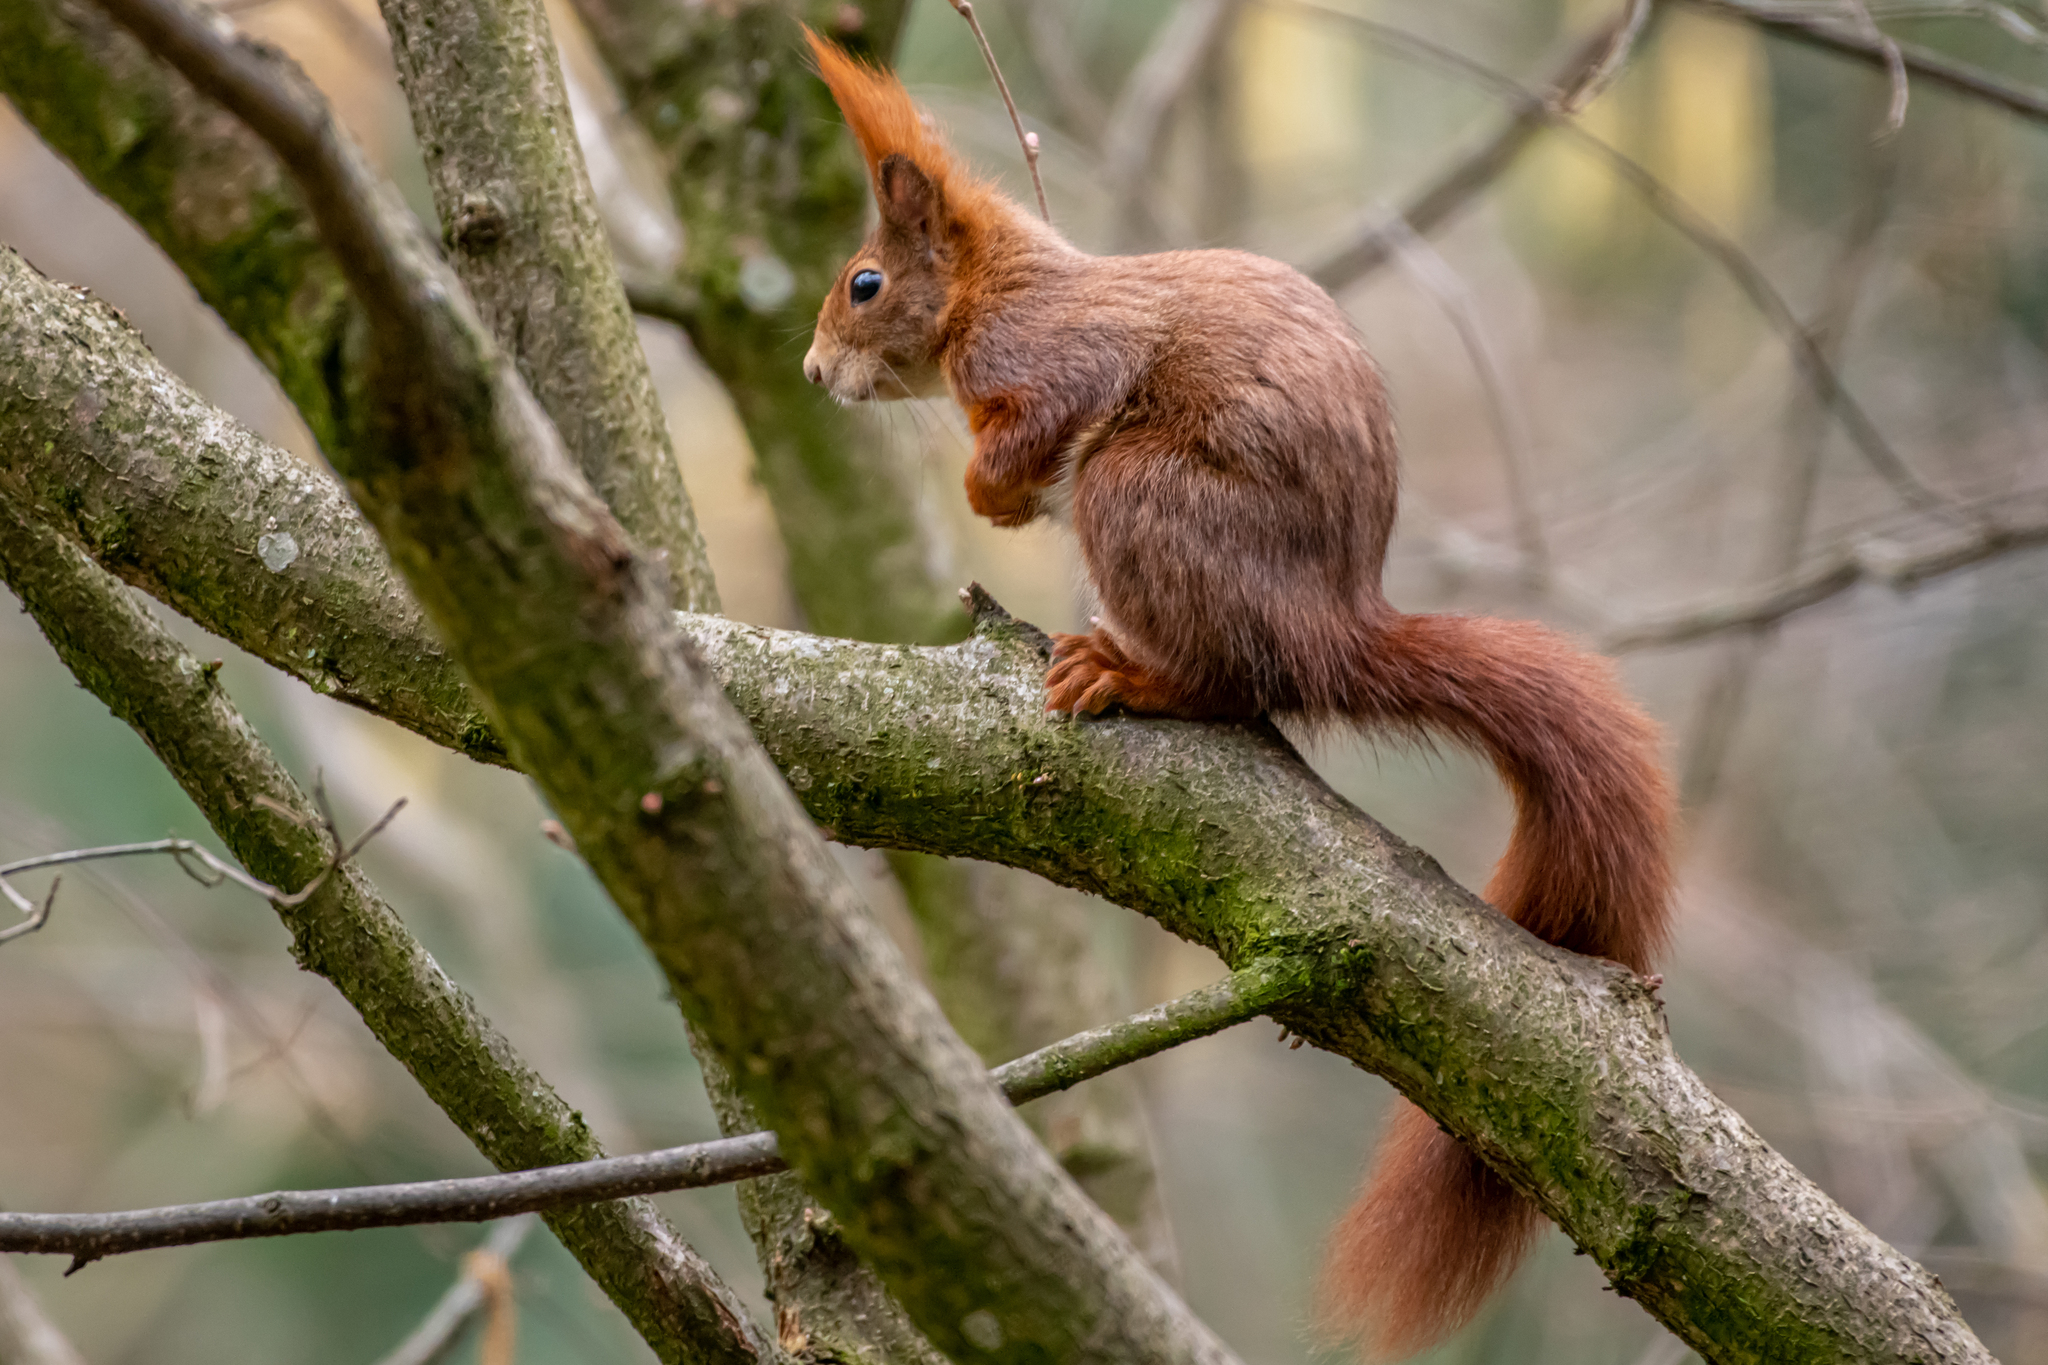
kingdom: Animalia
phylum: Chordata
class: Mammalia
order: Rodentia
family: Sciuridae
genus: Sciurus
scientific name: Sciurus vulgaris
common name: Eurasian red squirrel
